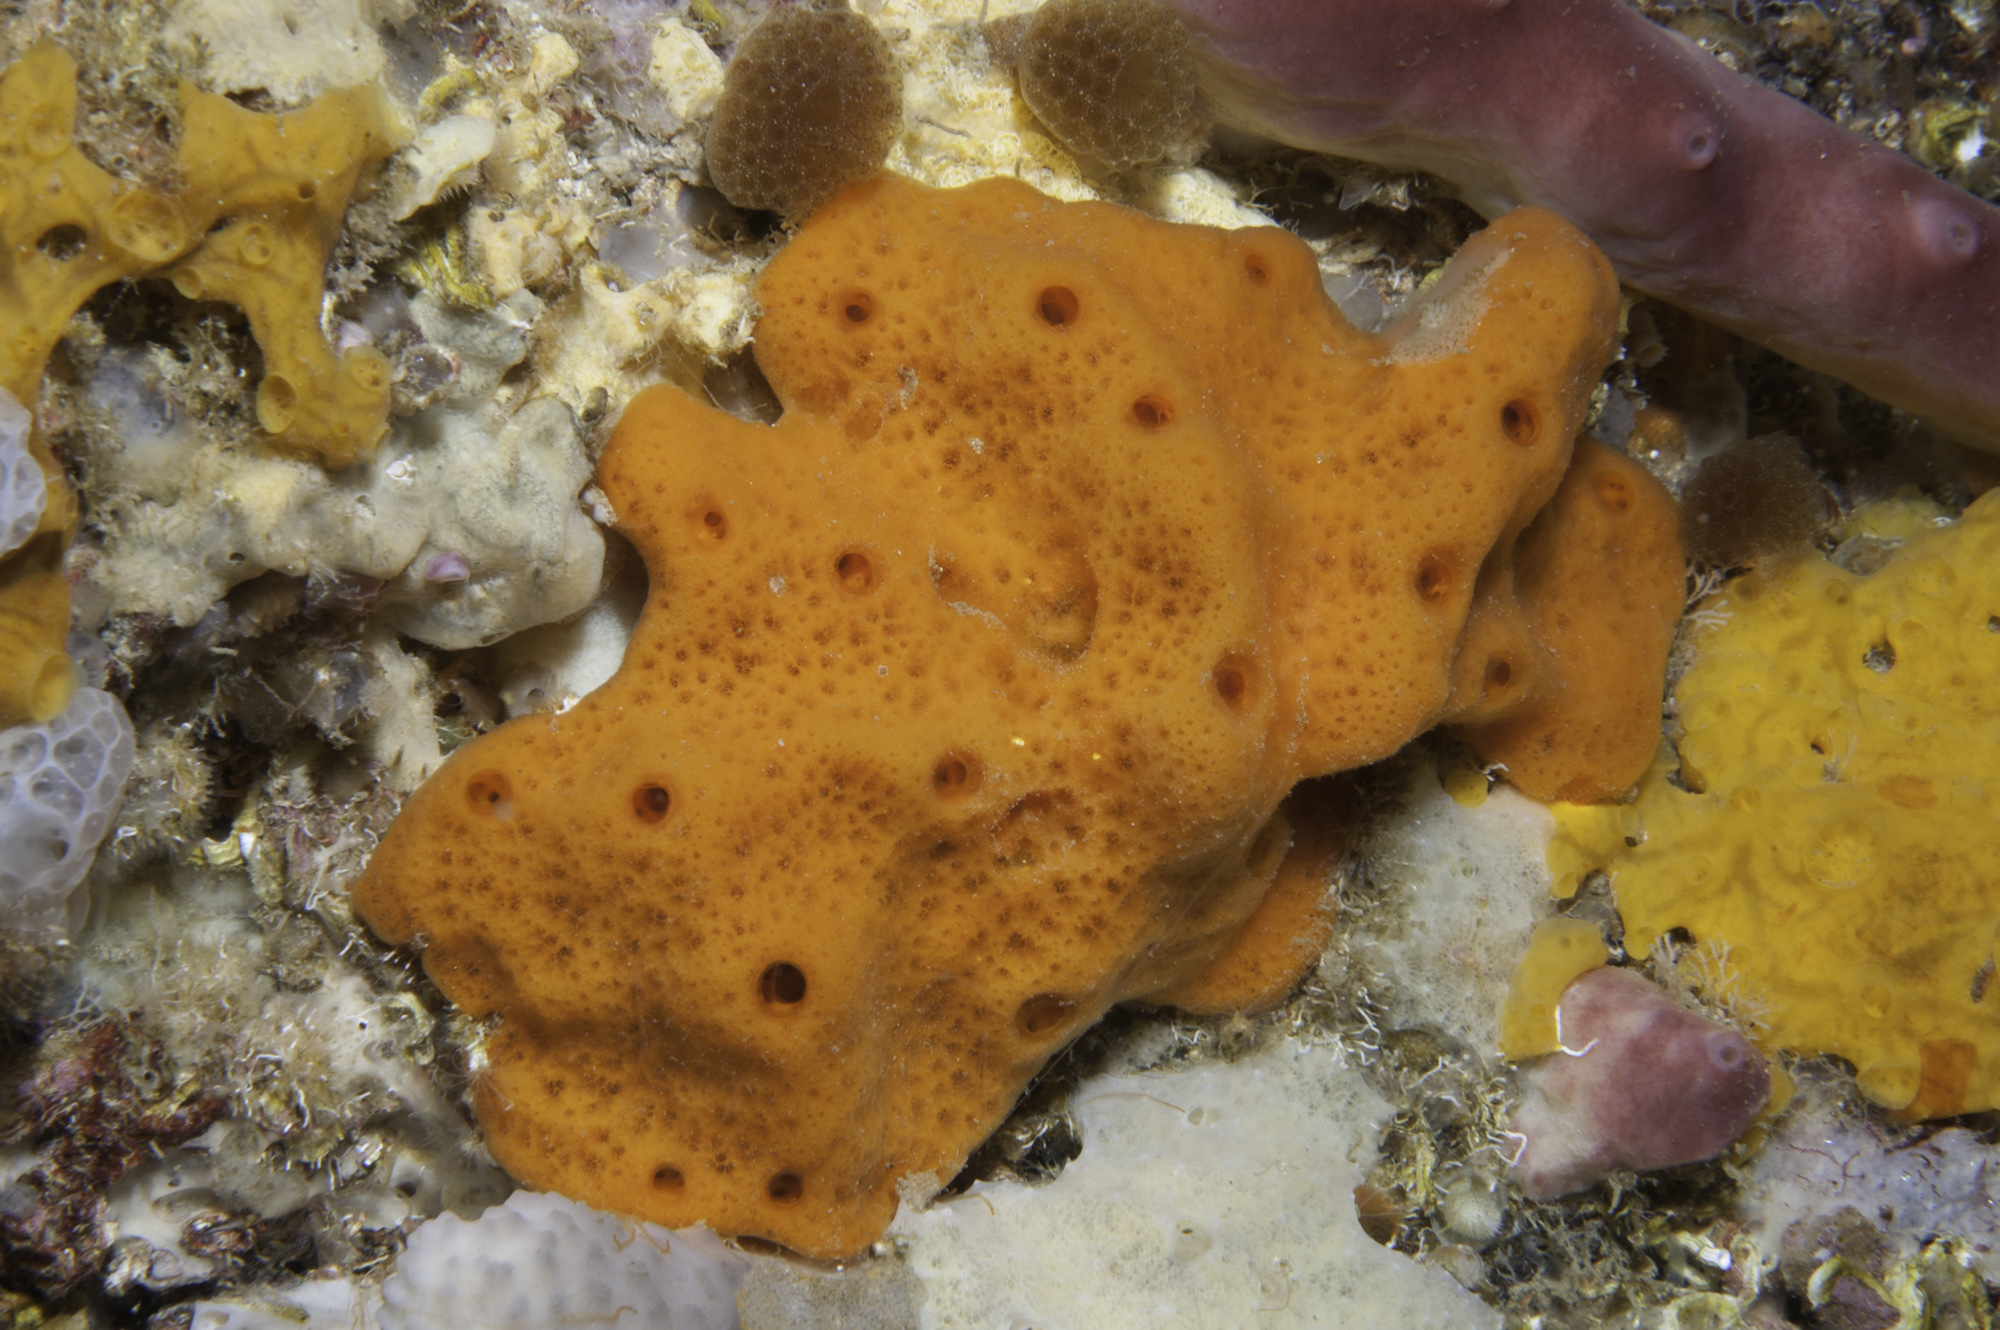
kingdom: Animalia
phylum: Porifera
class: Demospongiae
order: Haplosclerida
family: Chalinidae
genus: Haliclona
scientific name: Haliclona fulva
